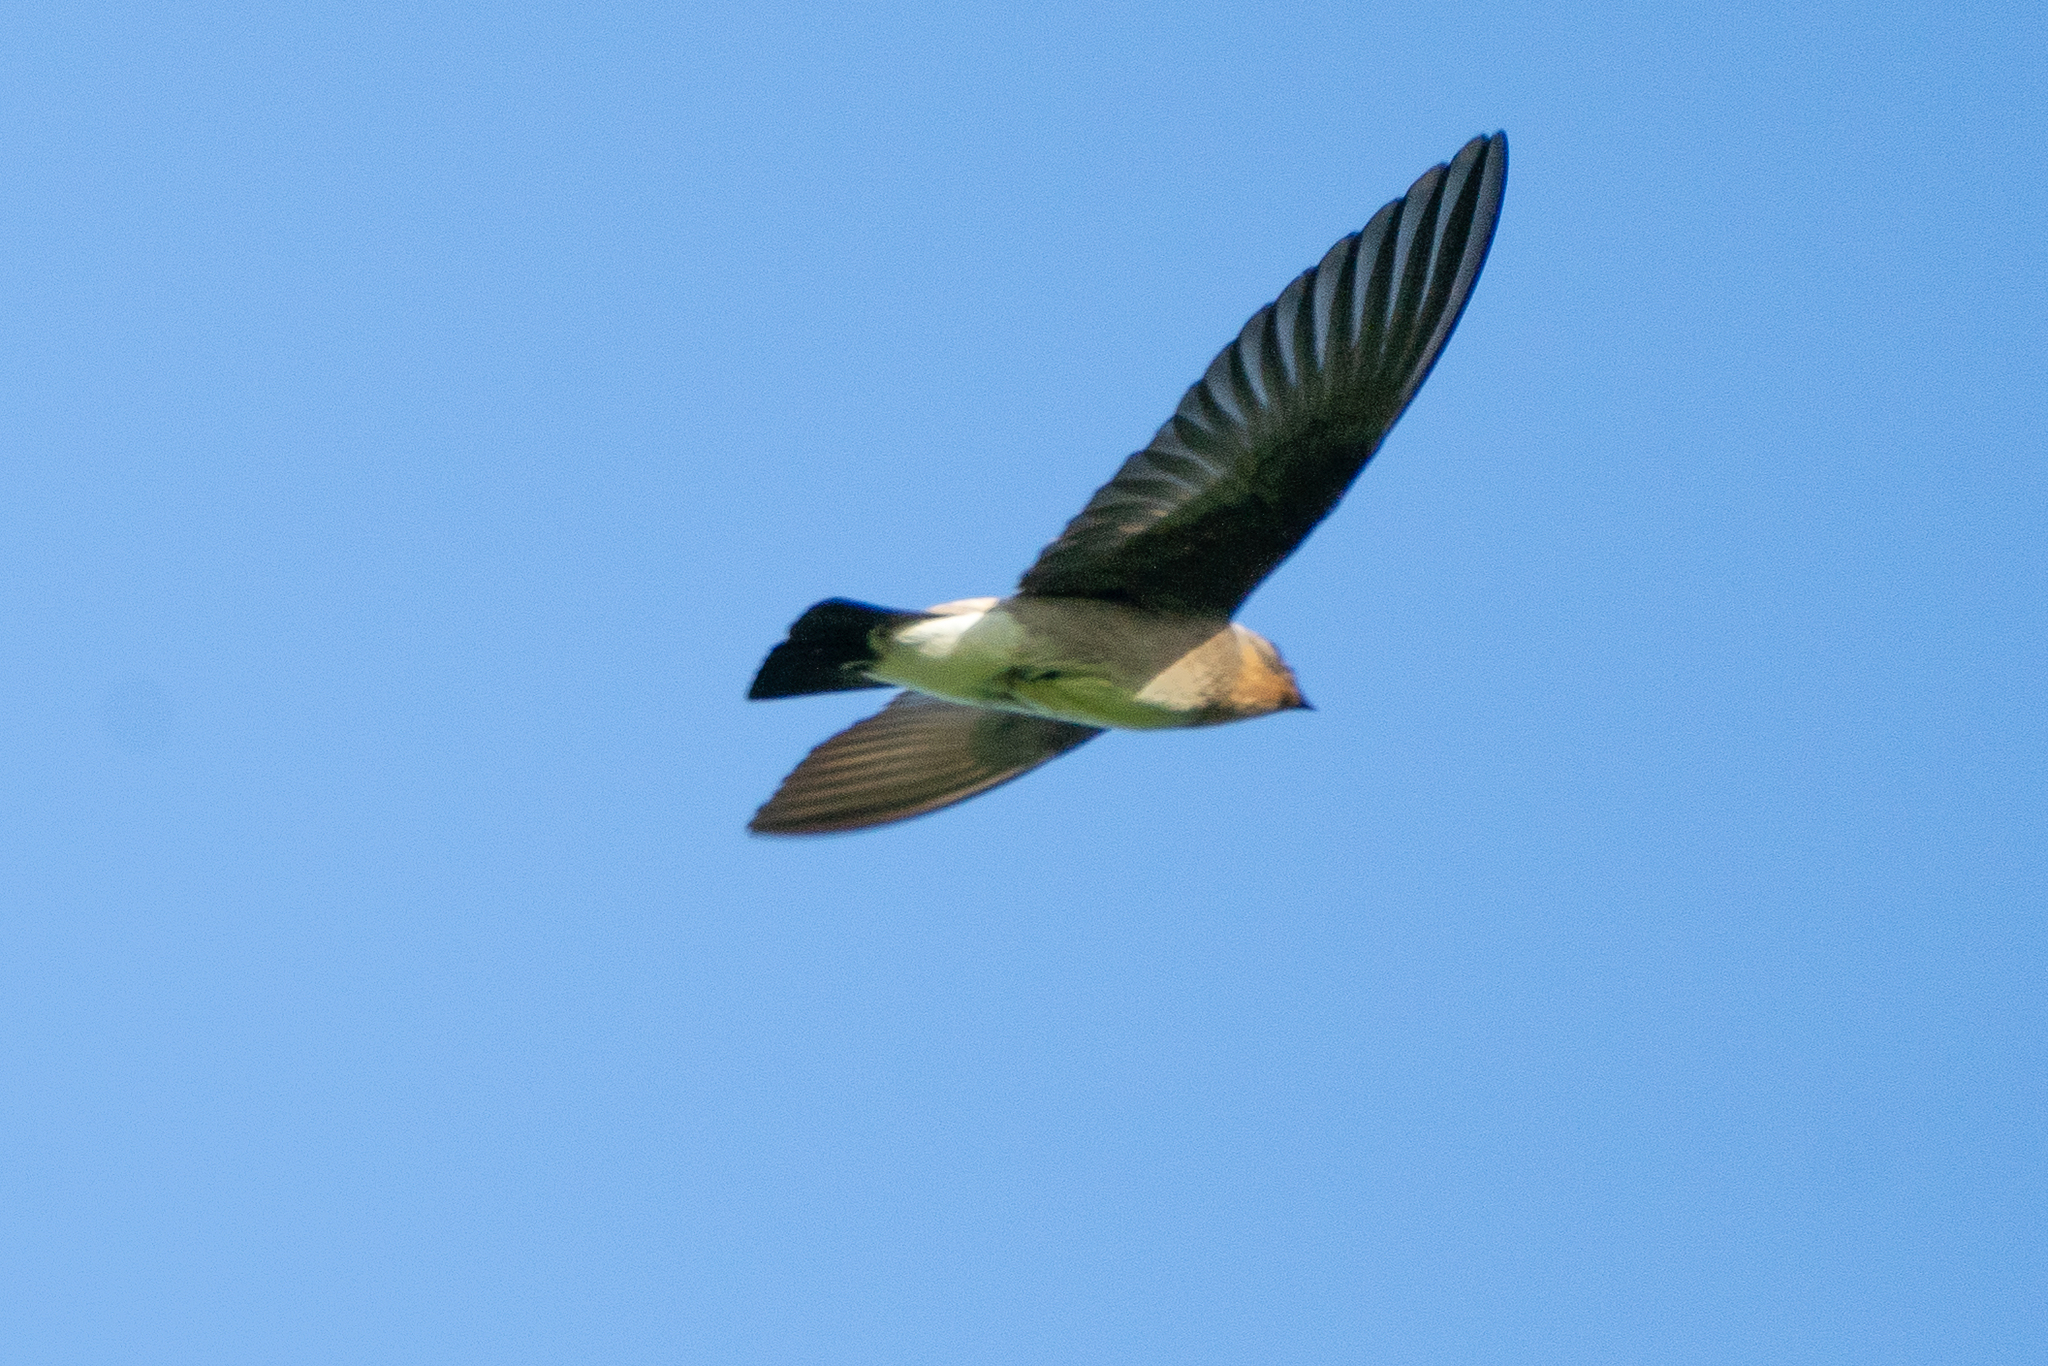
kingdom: Animalia
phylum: Chordata
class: Aves
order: Passeriformes
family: Hirundinidae
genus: Stelgidopteryx
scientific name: Stelgidopteryx ruficollis
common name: Southern rough-winged swallow
